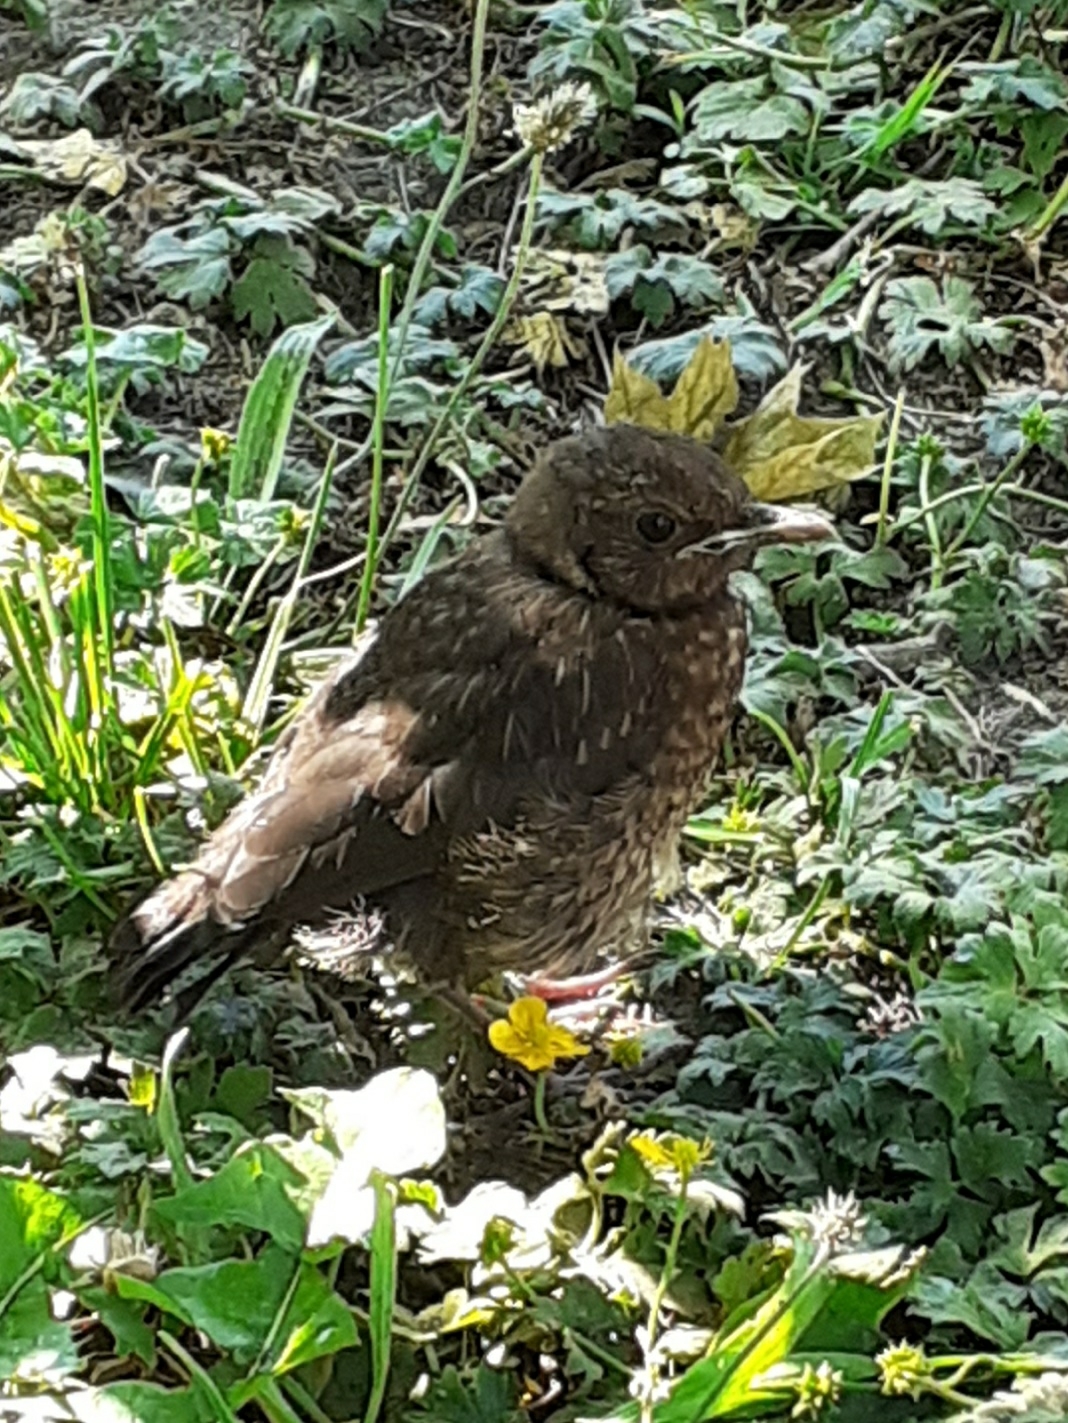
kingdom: Animalia
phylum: Chordata
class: Aves
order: Passeriformes
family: Turdidae
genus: Turdus
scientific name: Turdus merula
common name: Common blackbird
